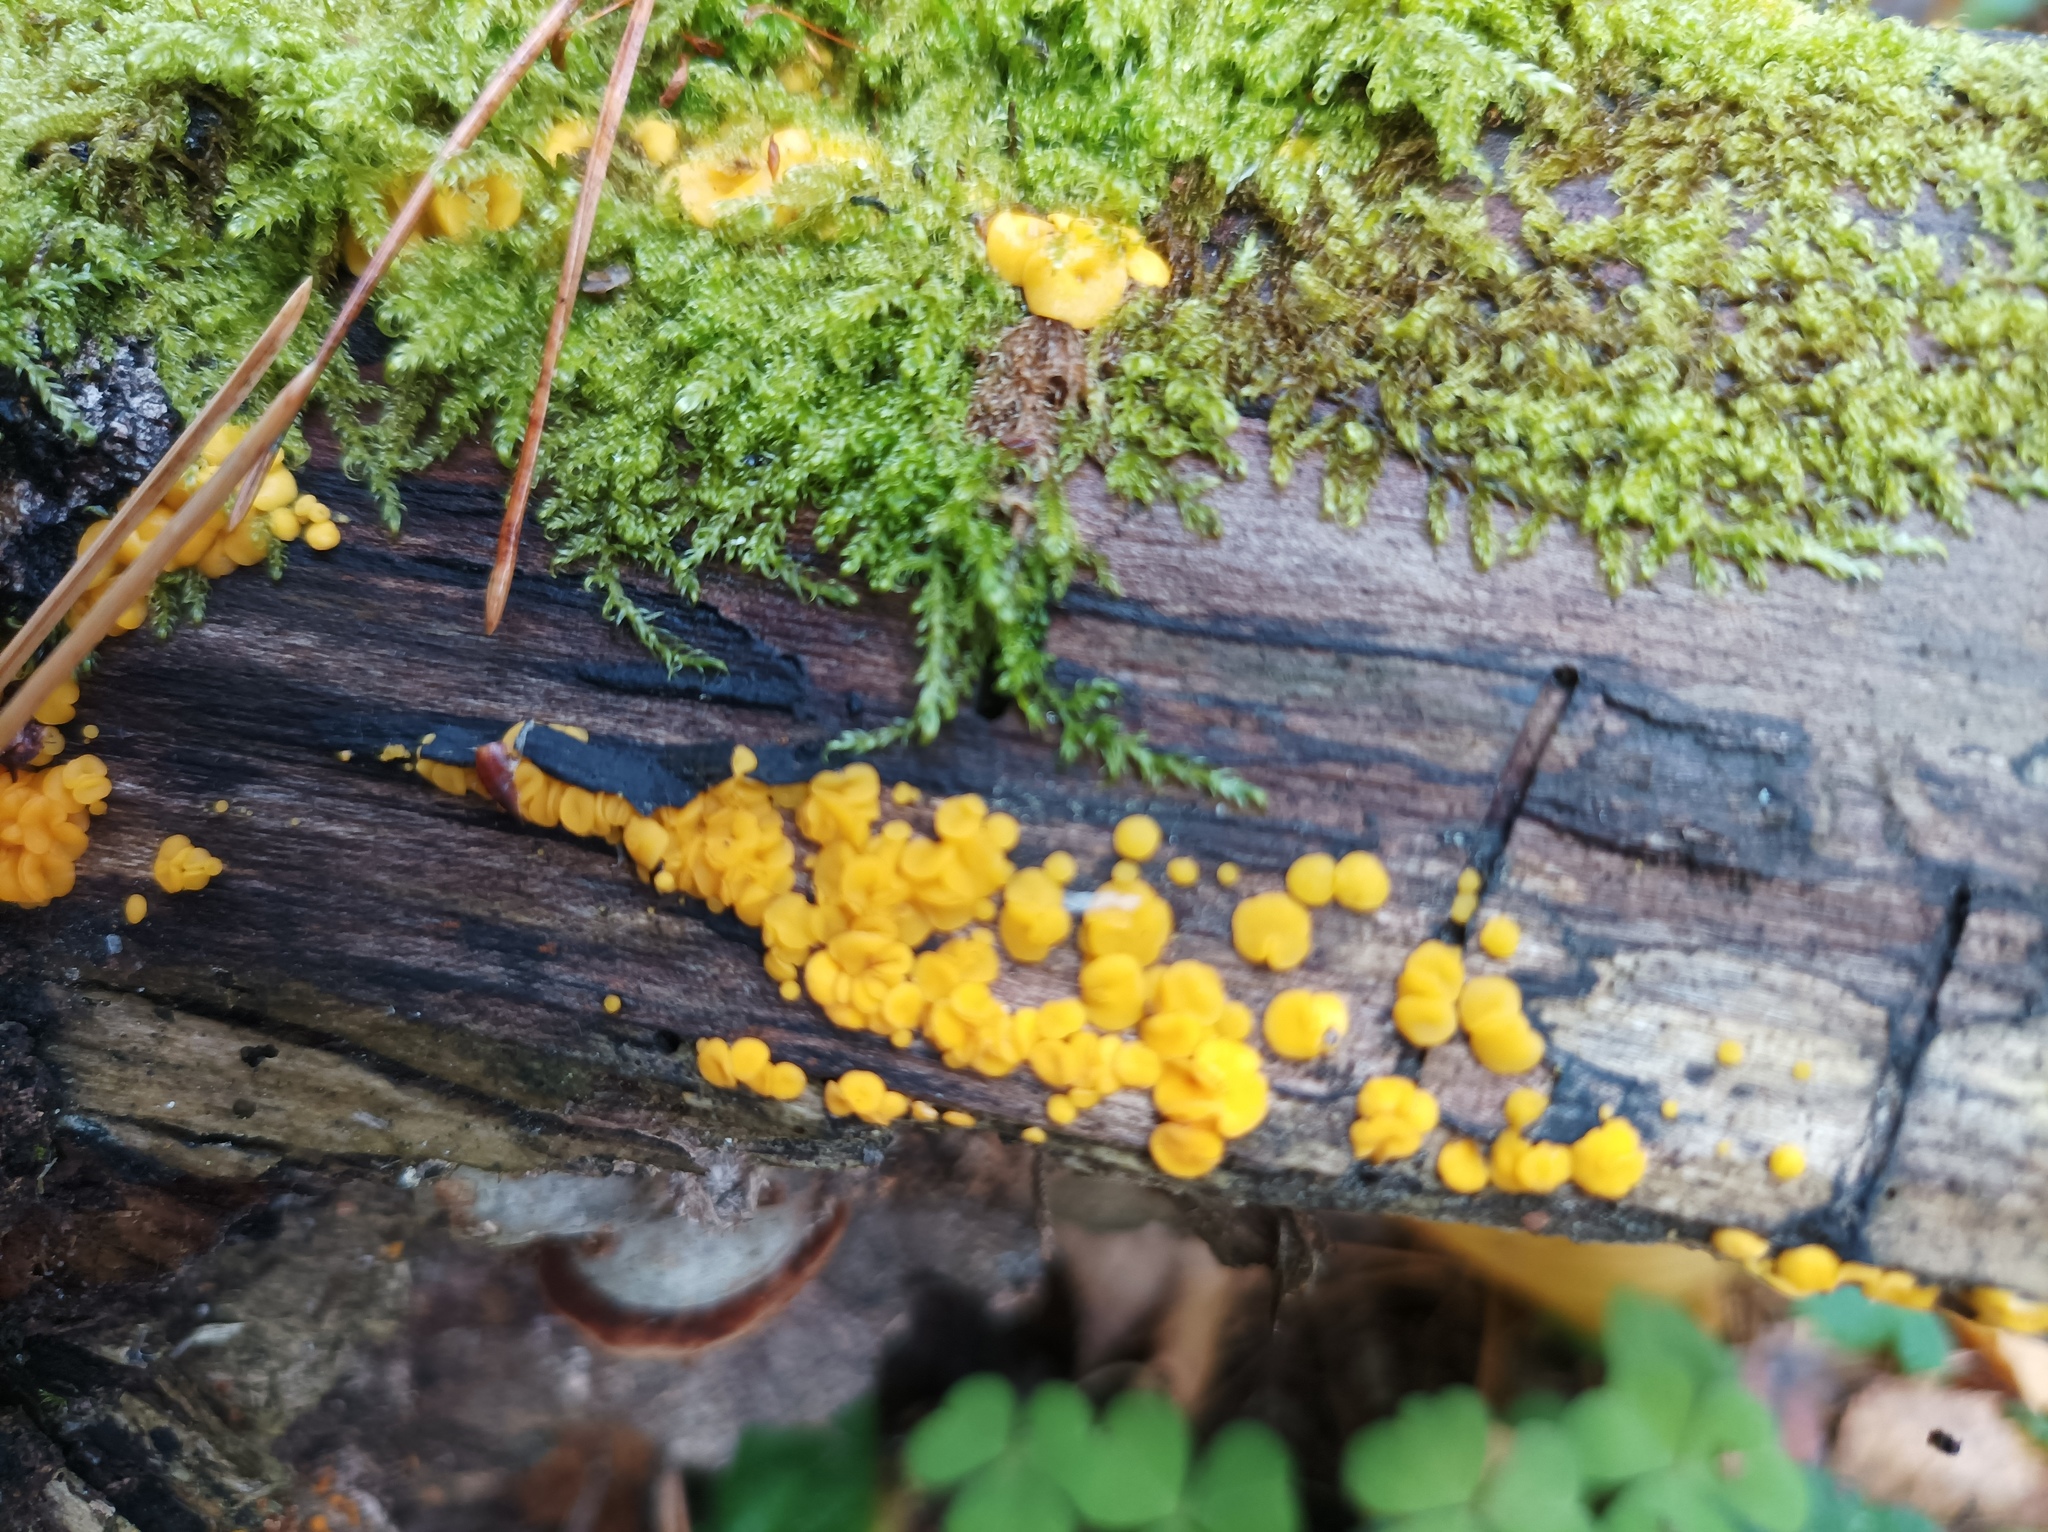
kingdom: Fungi
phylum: Ascomycota
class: Leotiomycetes
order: Helotiales
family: Pezizellaceae
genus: Calycina
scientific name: Calycina citrina
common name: Yellow fairy cups
